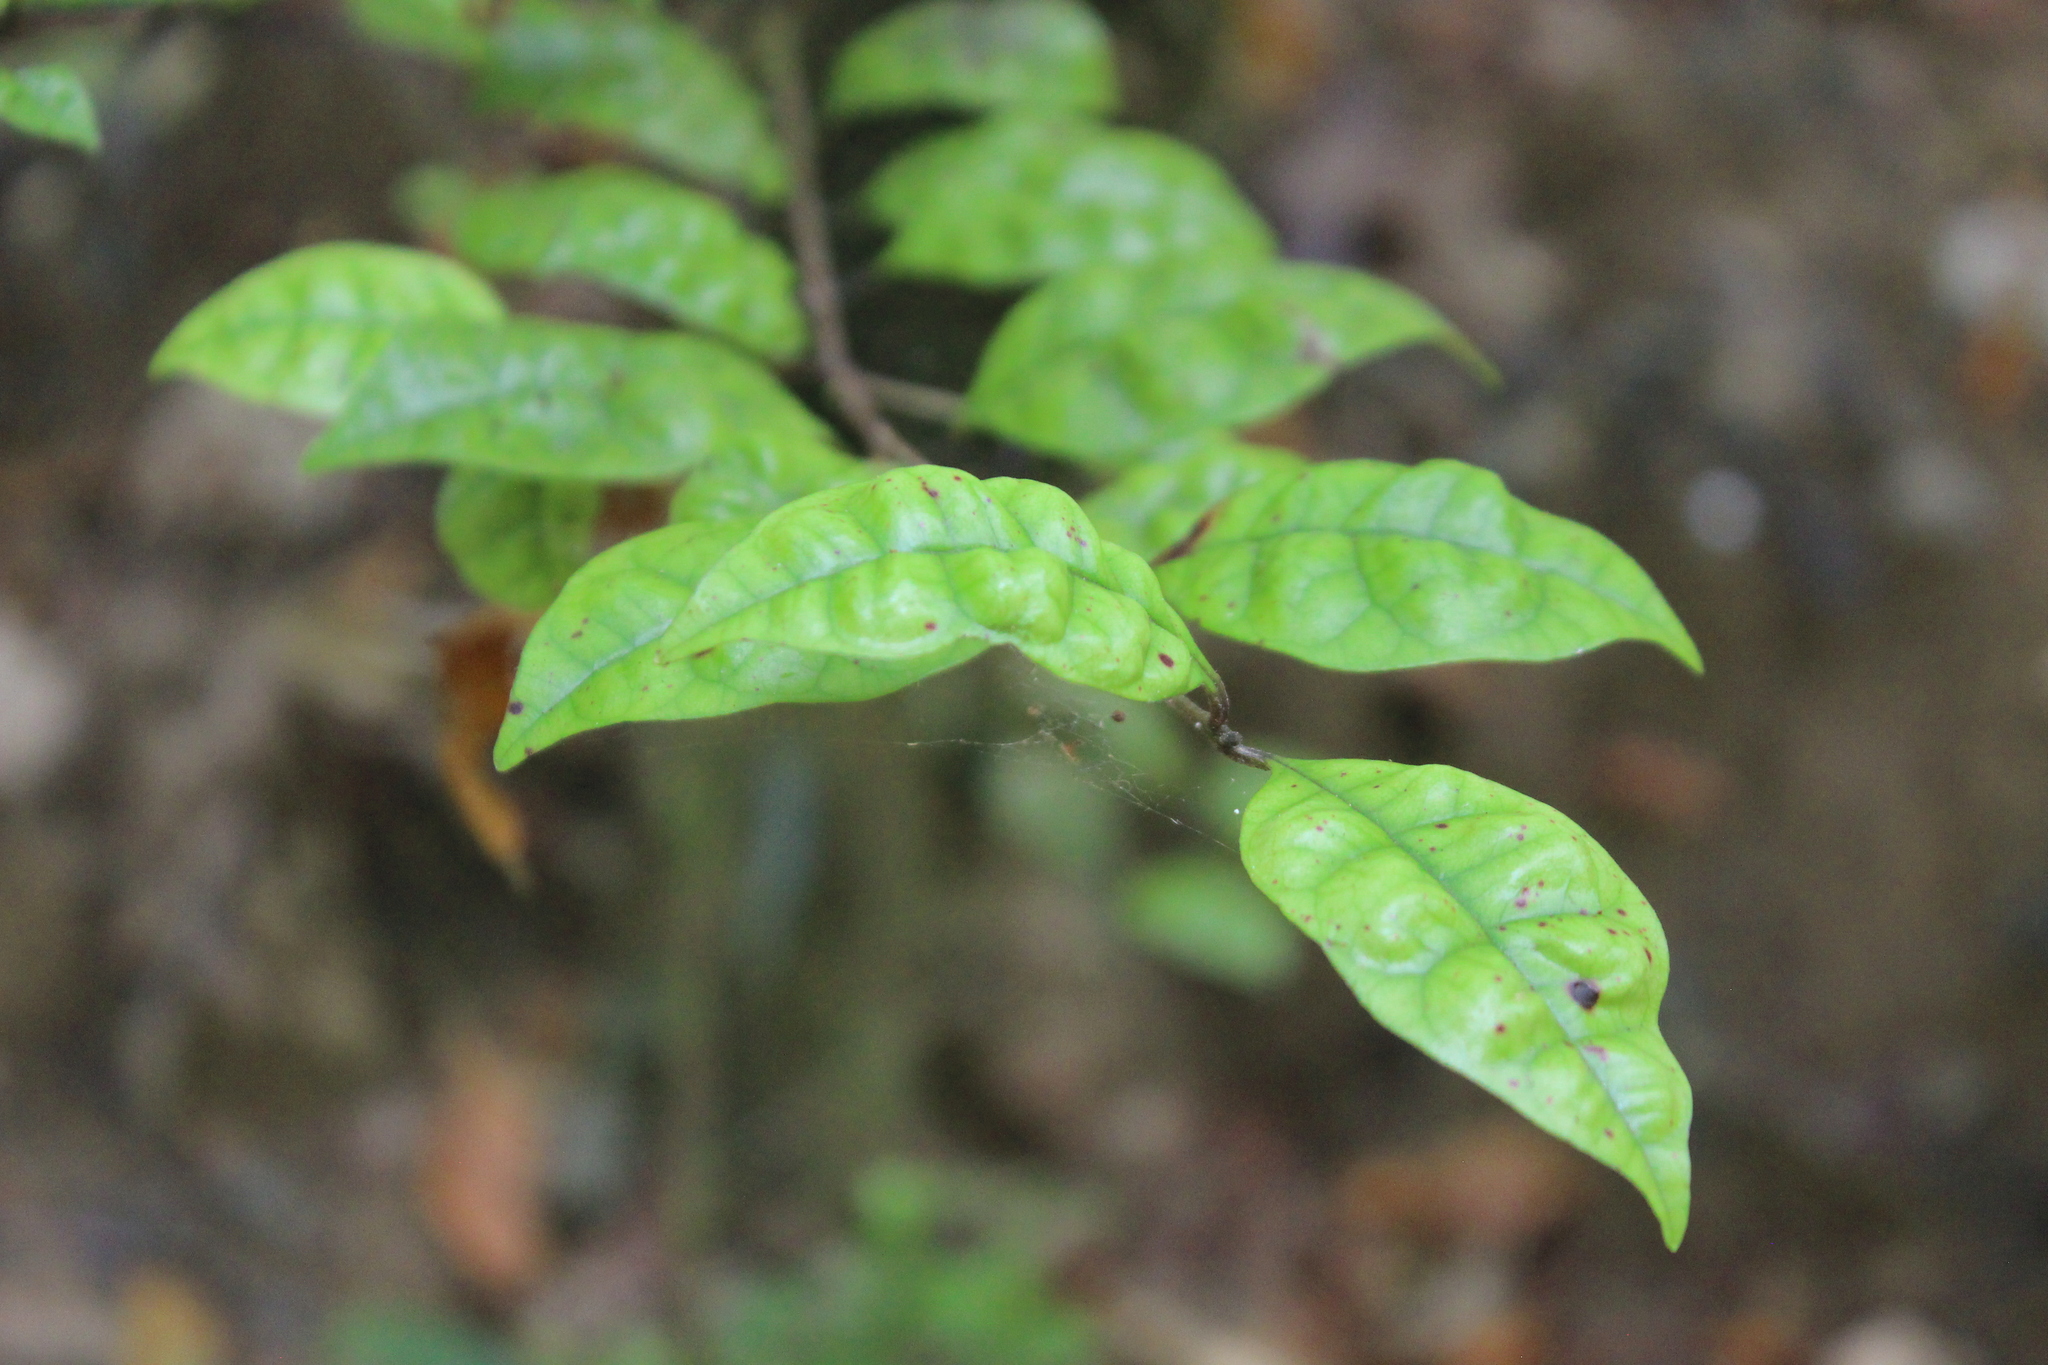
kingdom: Plantae
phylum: Tracheophyta
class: Magnoliopsida
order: Myrtales
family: Myrtaceae
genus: Lophomyrtus
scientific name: Lophomyrtus bullata
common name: Rama rama
